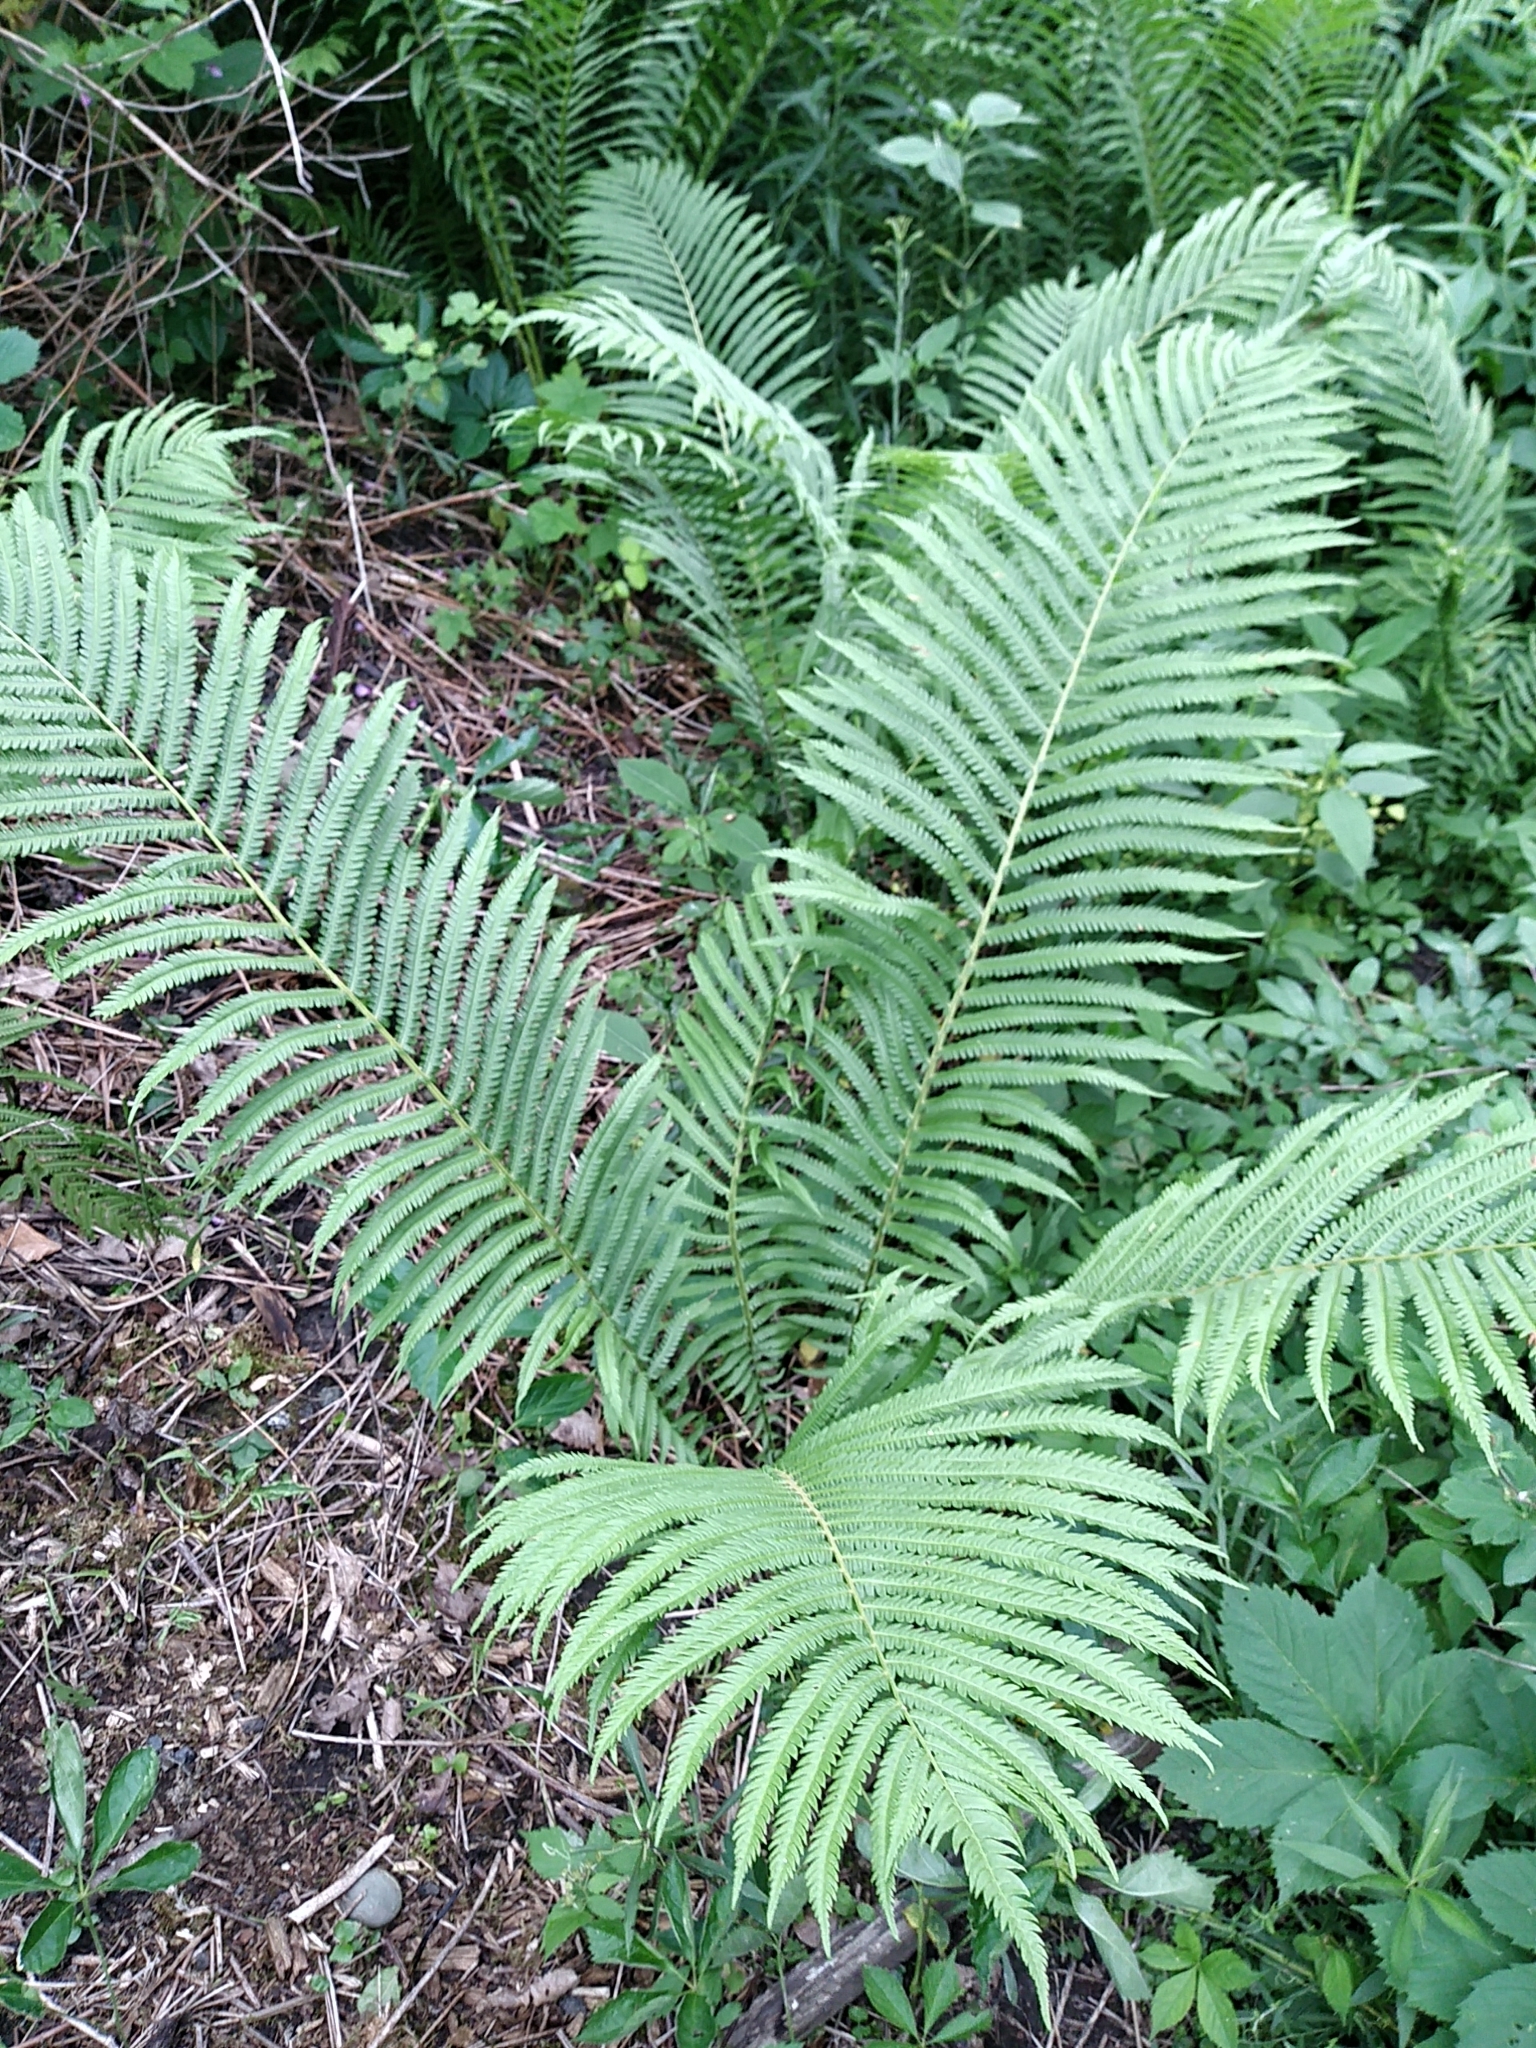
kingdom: Plantae
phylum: Tracheophyta
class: Polypodiopsida
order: Polypodiales
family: Onocleaceae
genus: Matteuccia
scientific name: Matteuccia struthiopteris
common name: Ostrich fern
